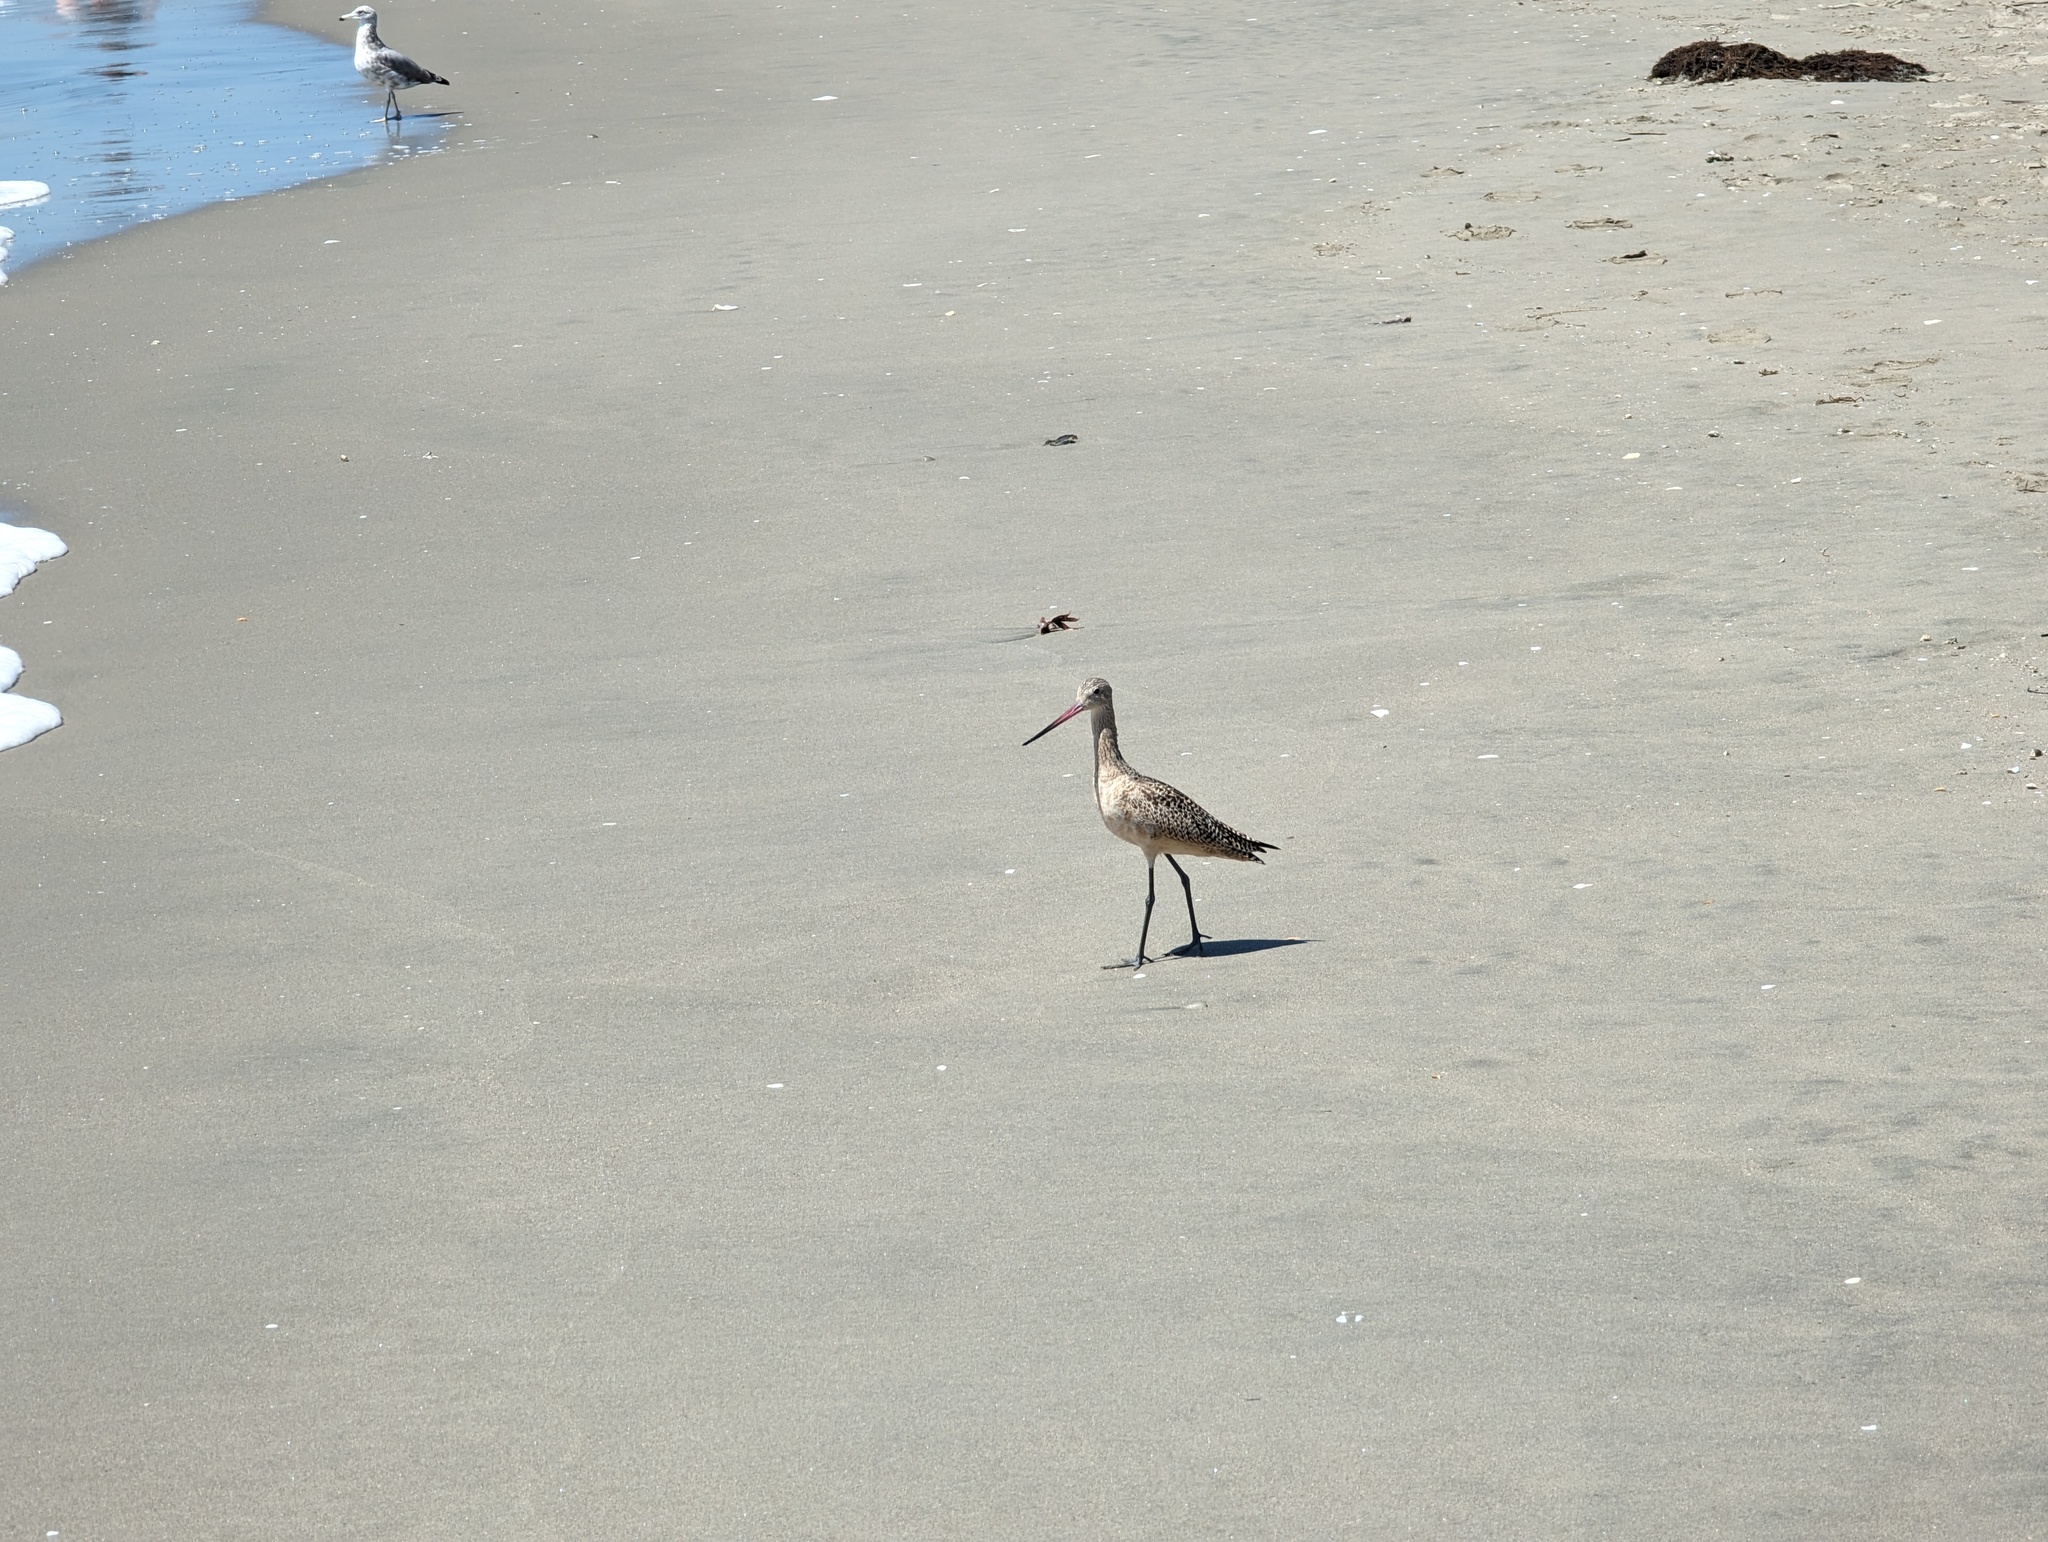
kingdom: Animalia
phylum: Chordata
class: Aves
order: Charadriiformes
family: Scolopacidae
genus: Limosa
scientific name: Limosa fedoa
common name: Marbled godwit
